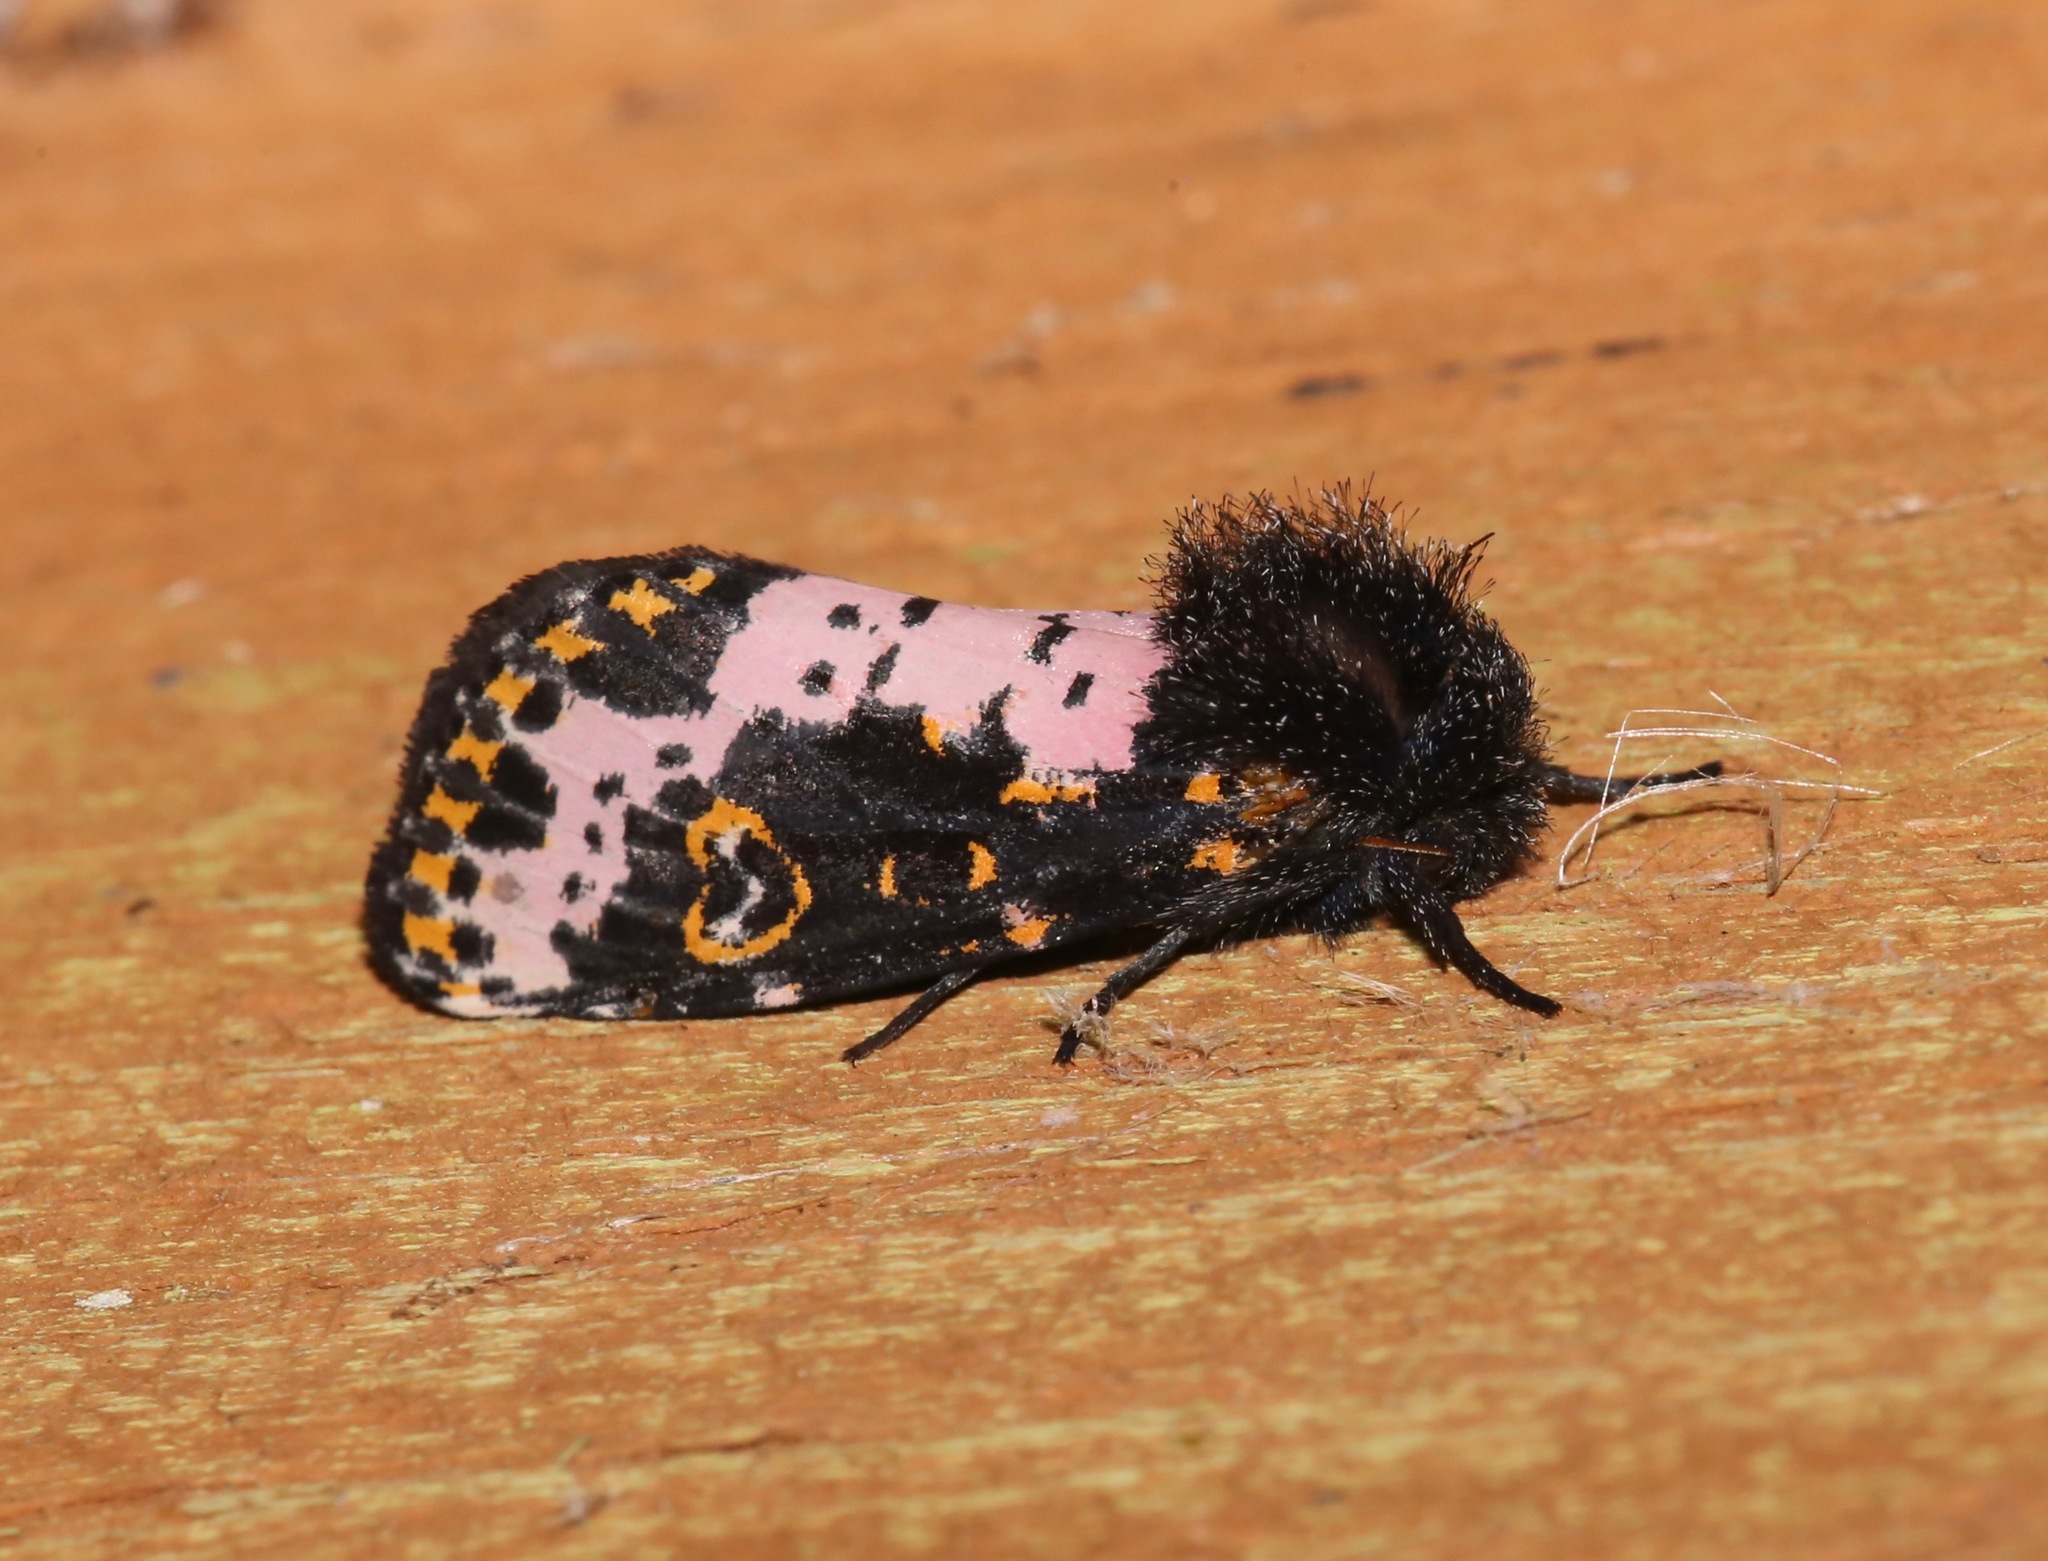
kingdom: Animalia
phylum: Arthropoda
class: Insecta
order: Lepidoptera
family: Noctuidae
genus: Xanthopastis
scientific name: Xanthopastis regnatrix
